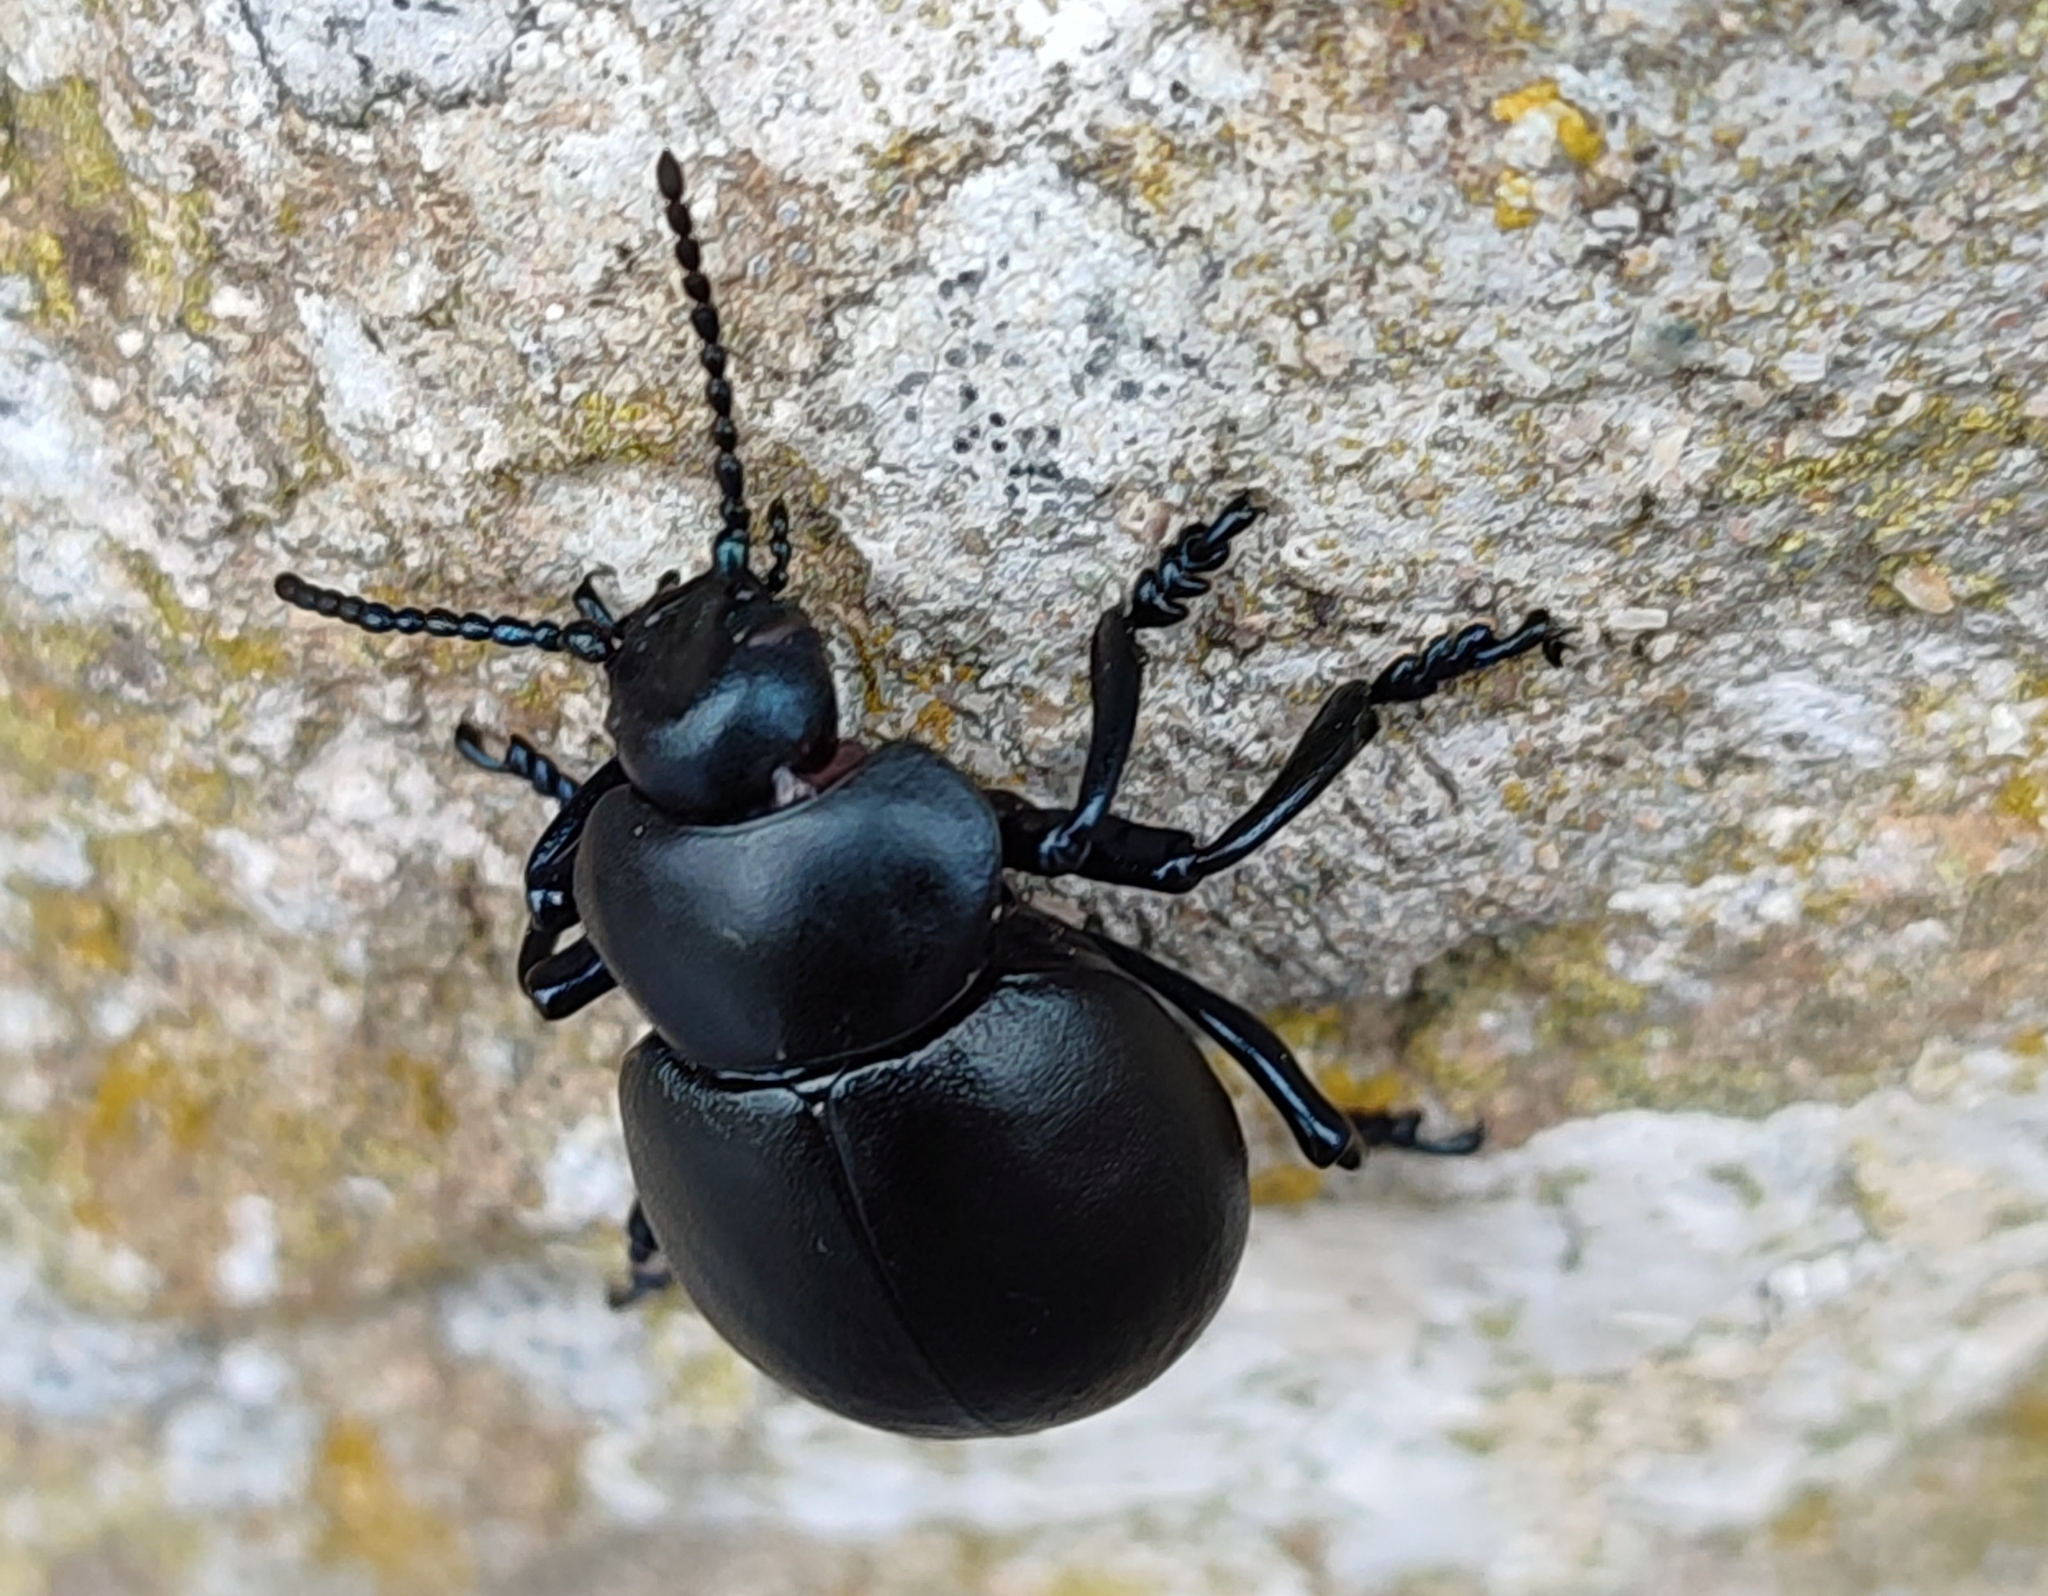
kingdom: Animalia
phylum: Arthropoda
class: Insecta
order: Coleoptera
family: Chrysomelidae
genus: Timarcha
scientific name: Timarcha tenebricosa
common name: Bloody-nosed beetle
